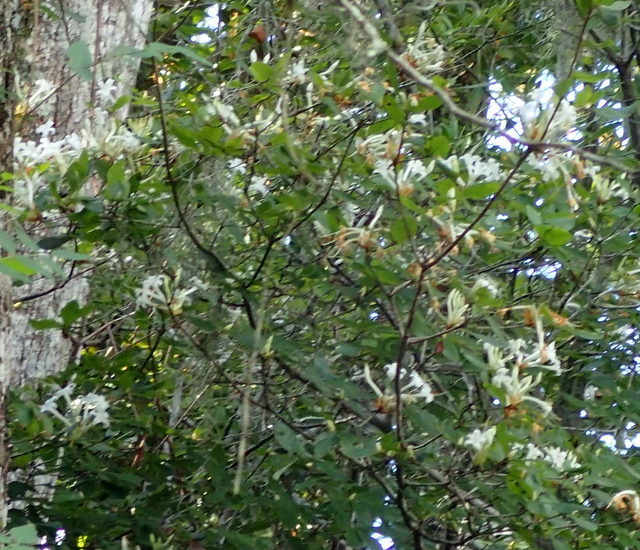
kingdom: Plantae
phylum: Tracheophyta
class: Magnoliopsida
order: Ericales
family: Ericaceae
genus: Rhododendron
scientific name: Rhododendron serrulatum
